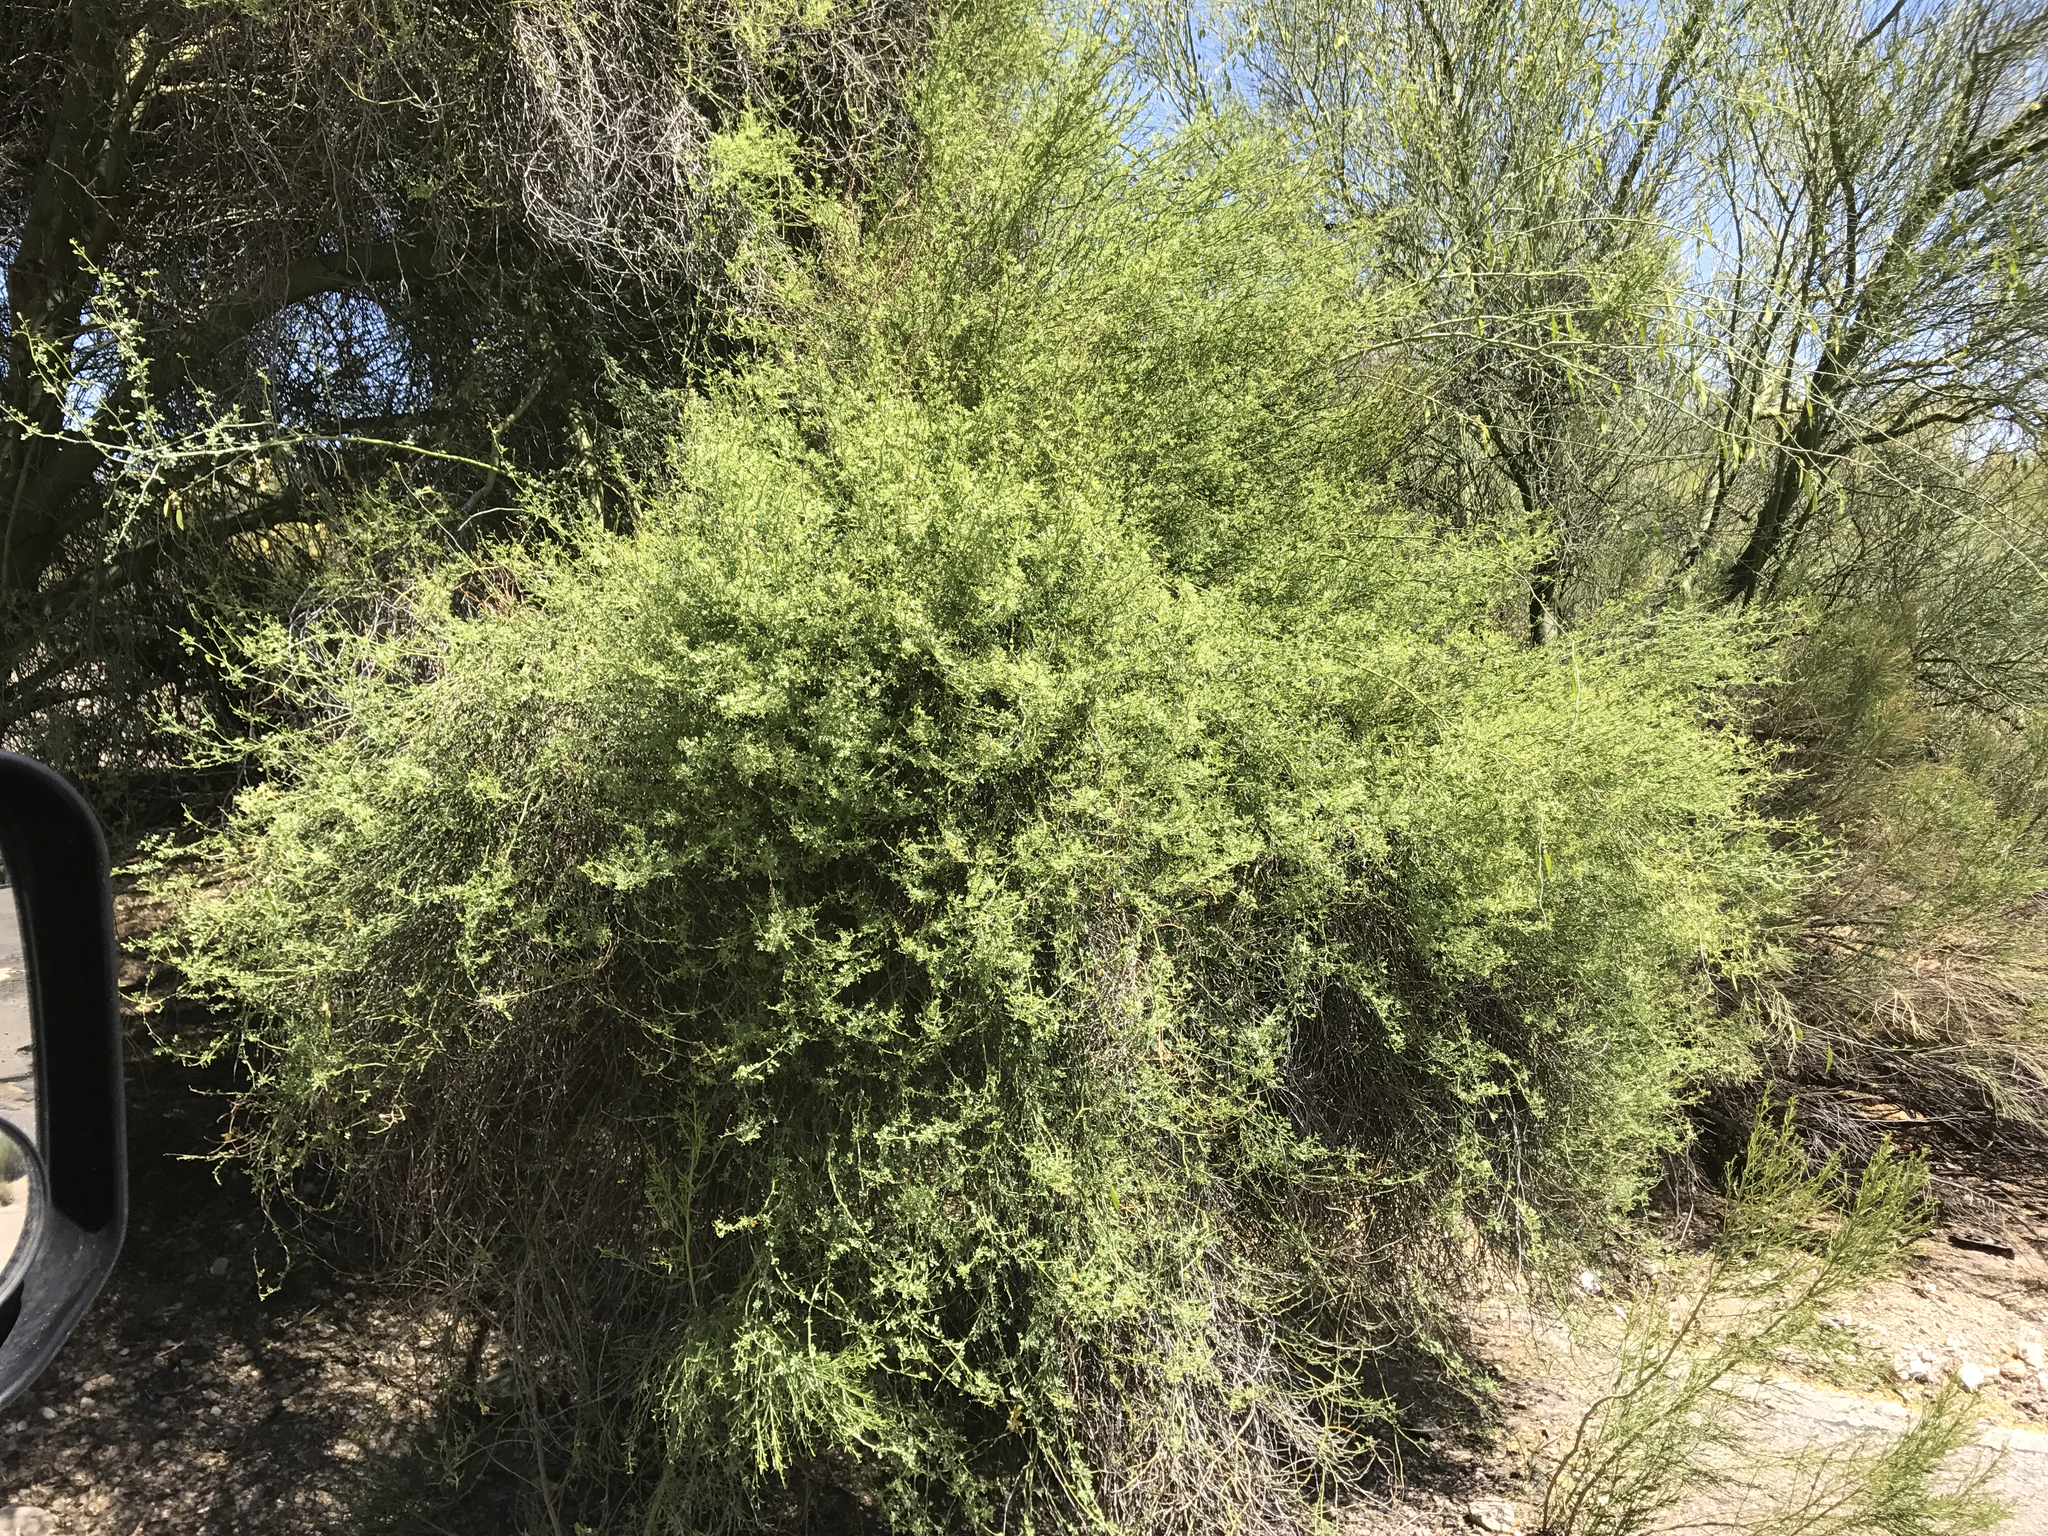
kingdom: Plantae
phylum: Tracheophyta
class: Magnoliopsida
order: Fabales
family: Fabaceae
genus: Parkinsonia
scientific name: Parkinsonia microphylla
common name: Yellow paloverde
